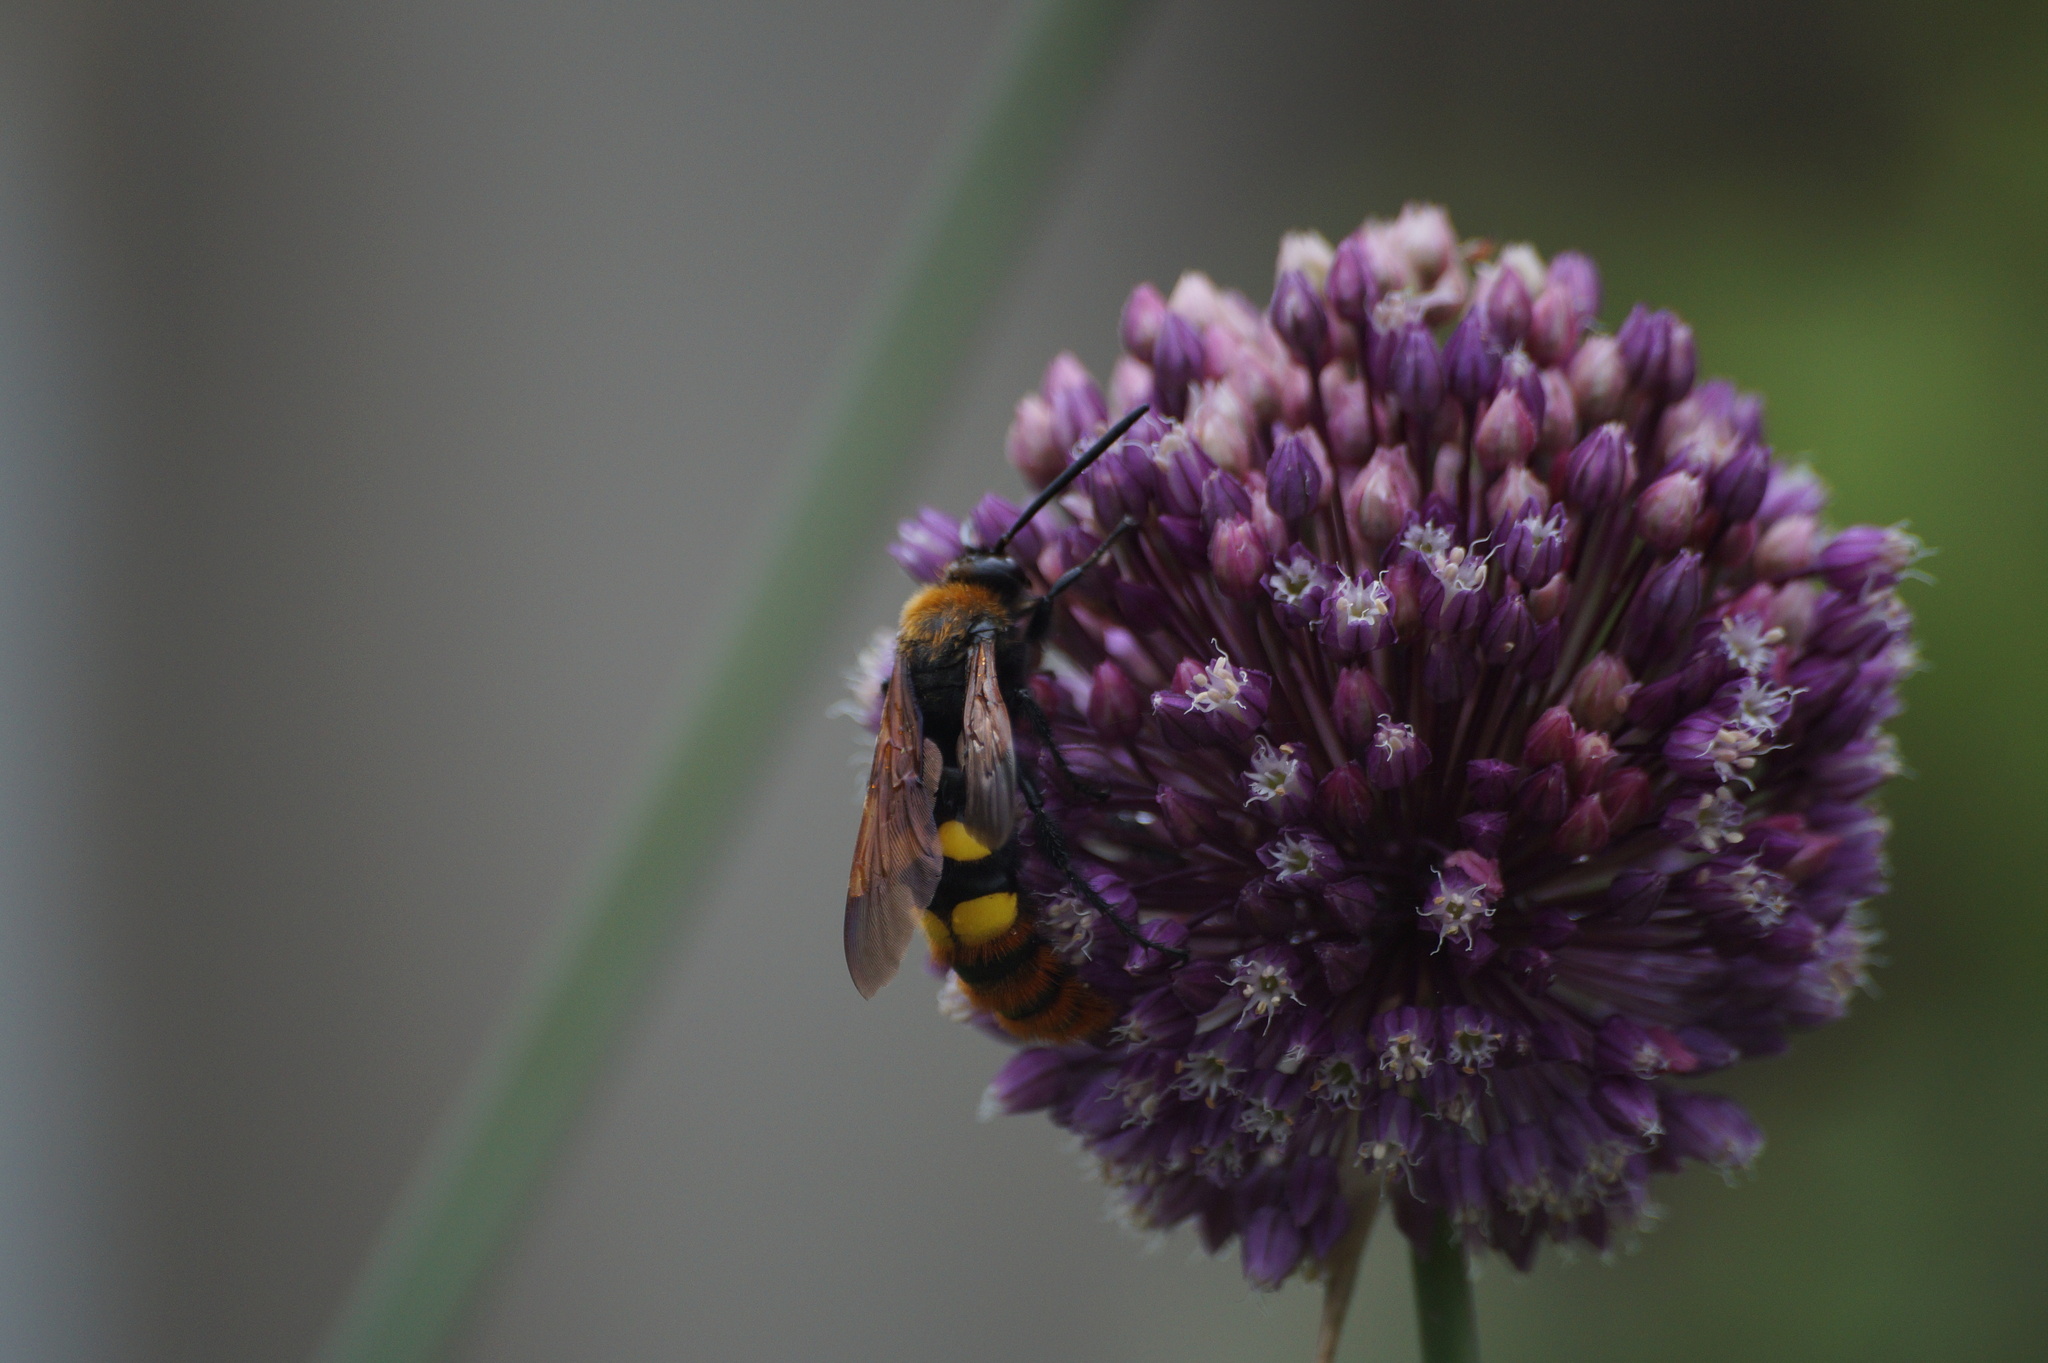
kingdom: Animalia
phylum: Arthropoda
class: Insecta
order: Hymenoptera
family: Scoliidae
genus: Megascolia
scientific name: Megascolia maculata
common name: Mammoth wasp
